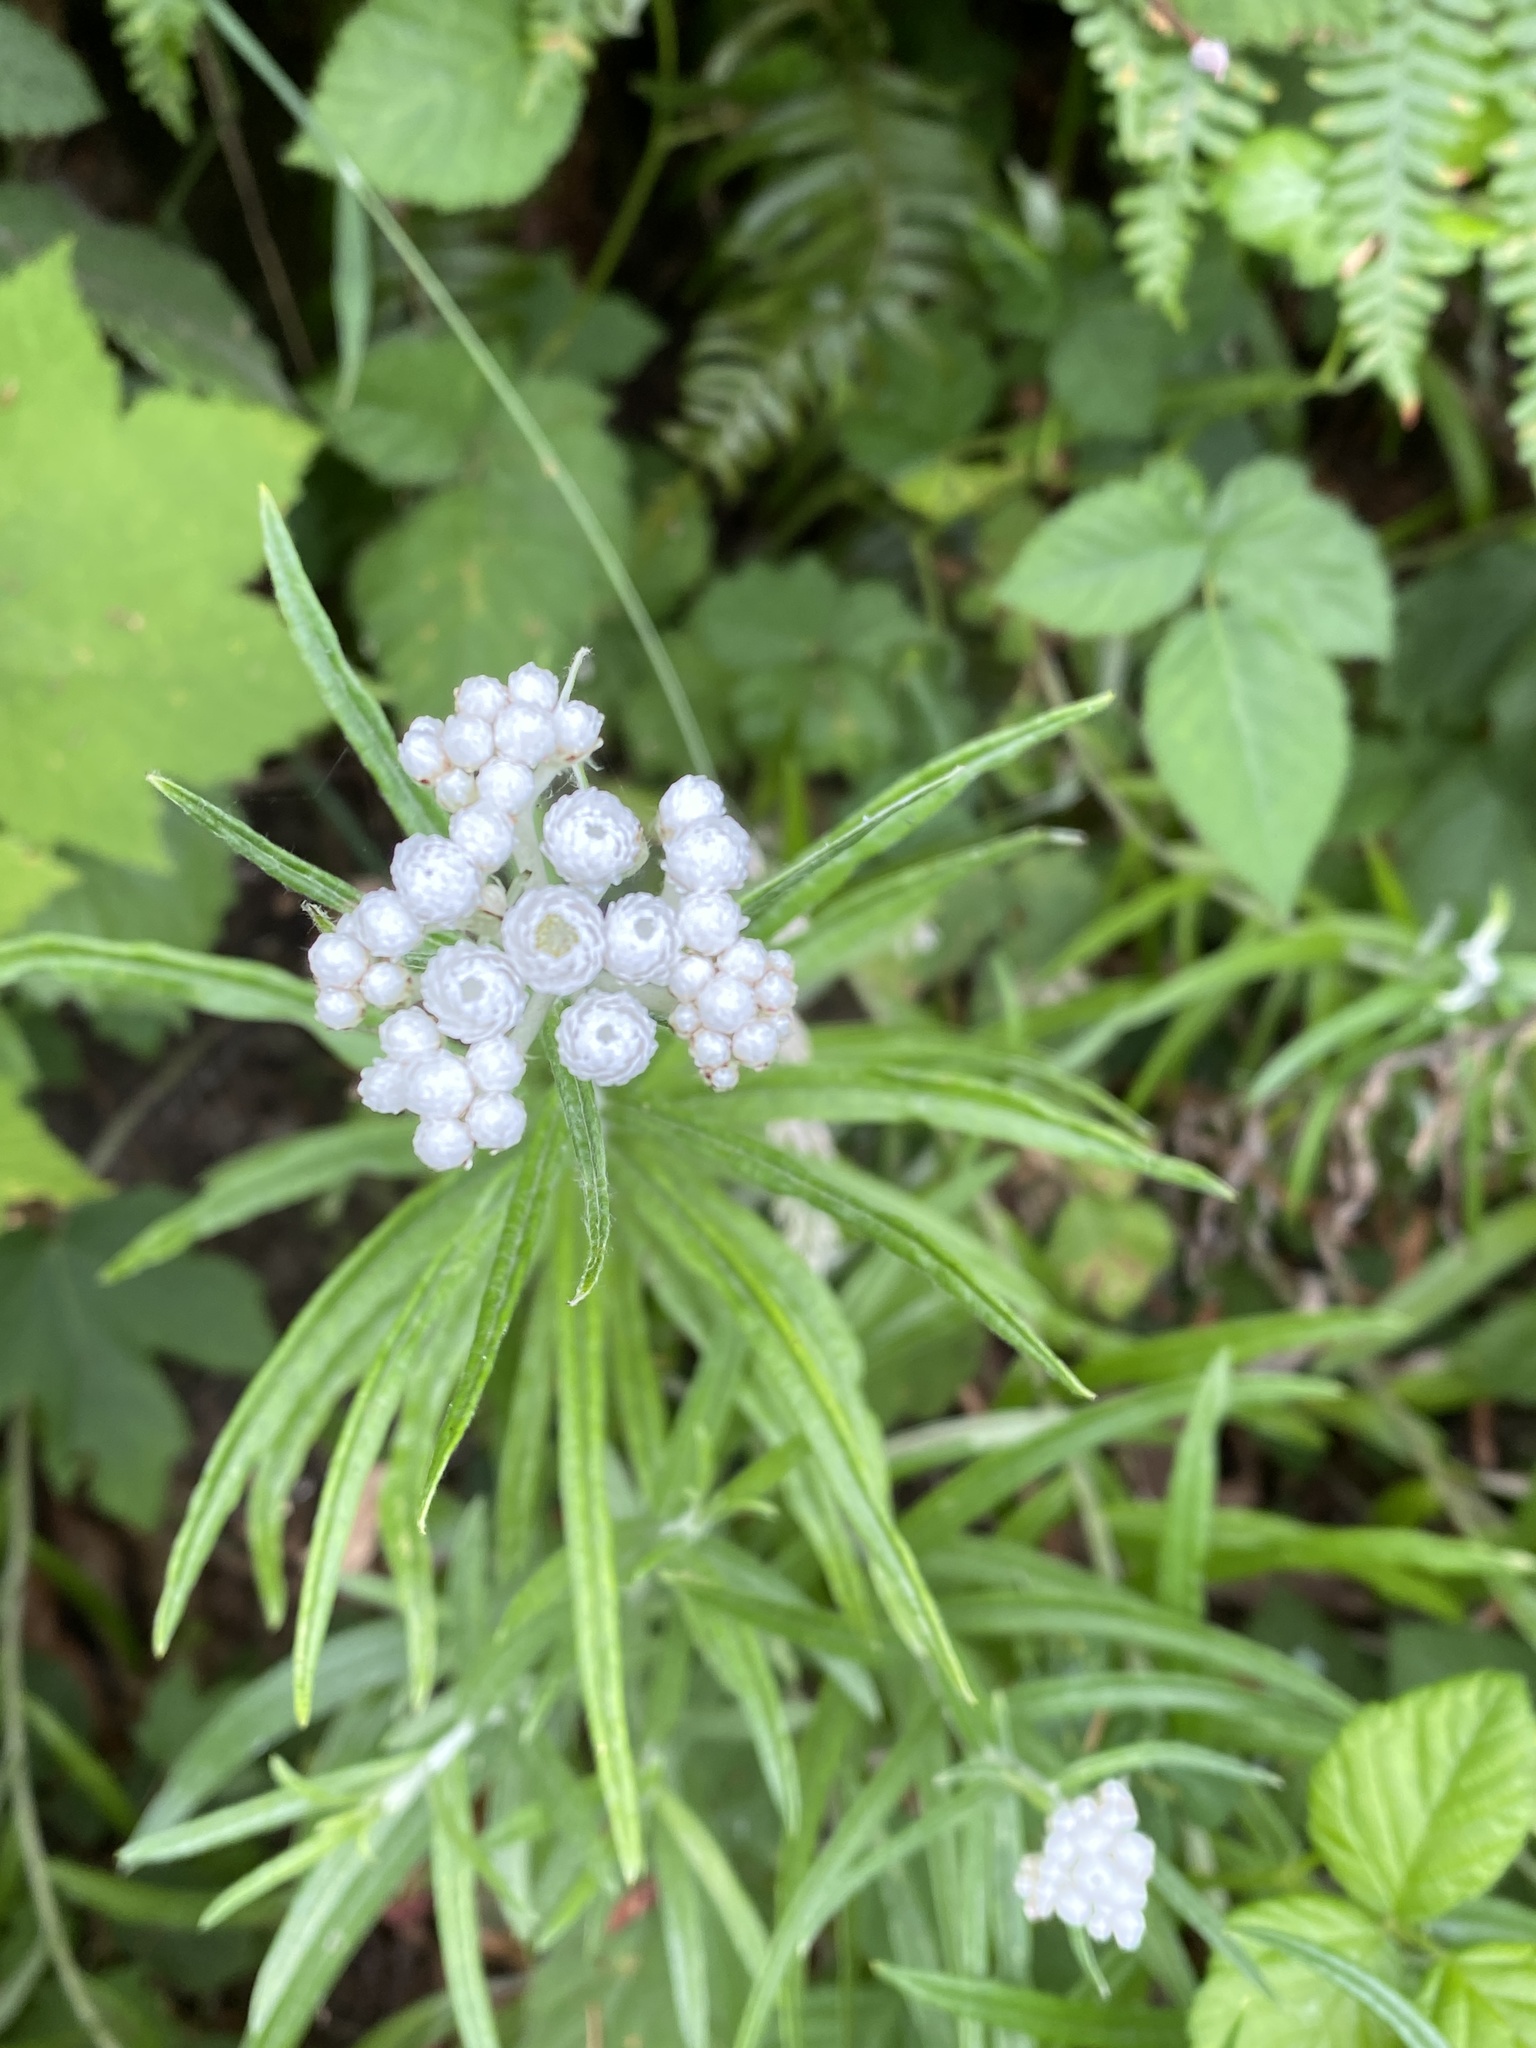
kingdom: Plantae
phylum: Tracheophyta
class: Magnoliopsida
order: Asterales
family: Asteraceae
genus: Anaphalis
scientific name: Anaphalis margaritacea
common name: Pearly everlasting
